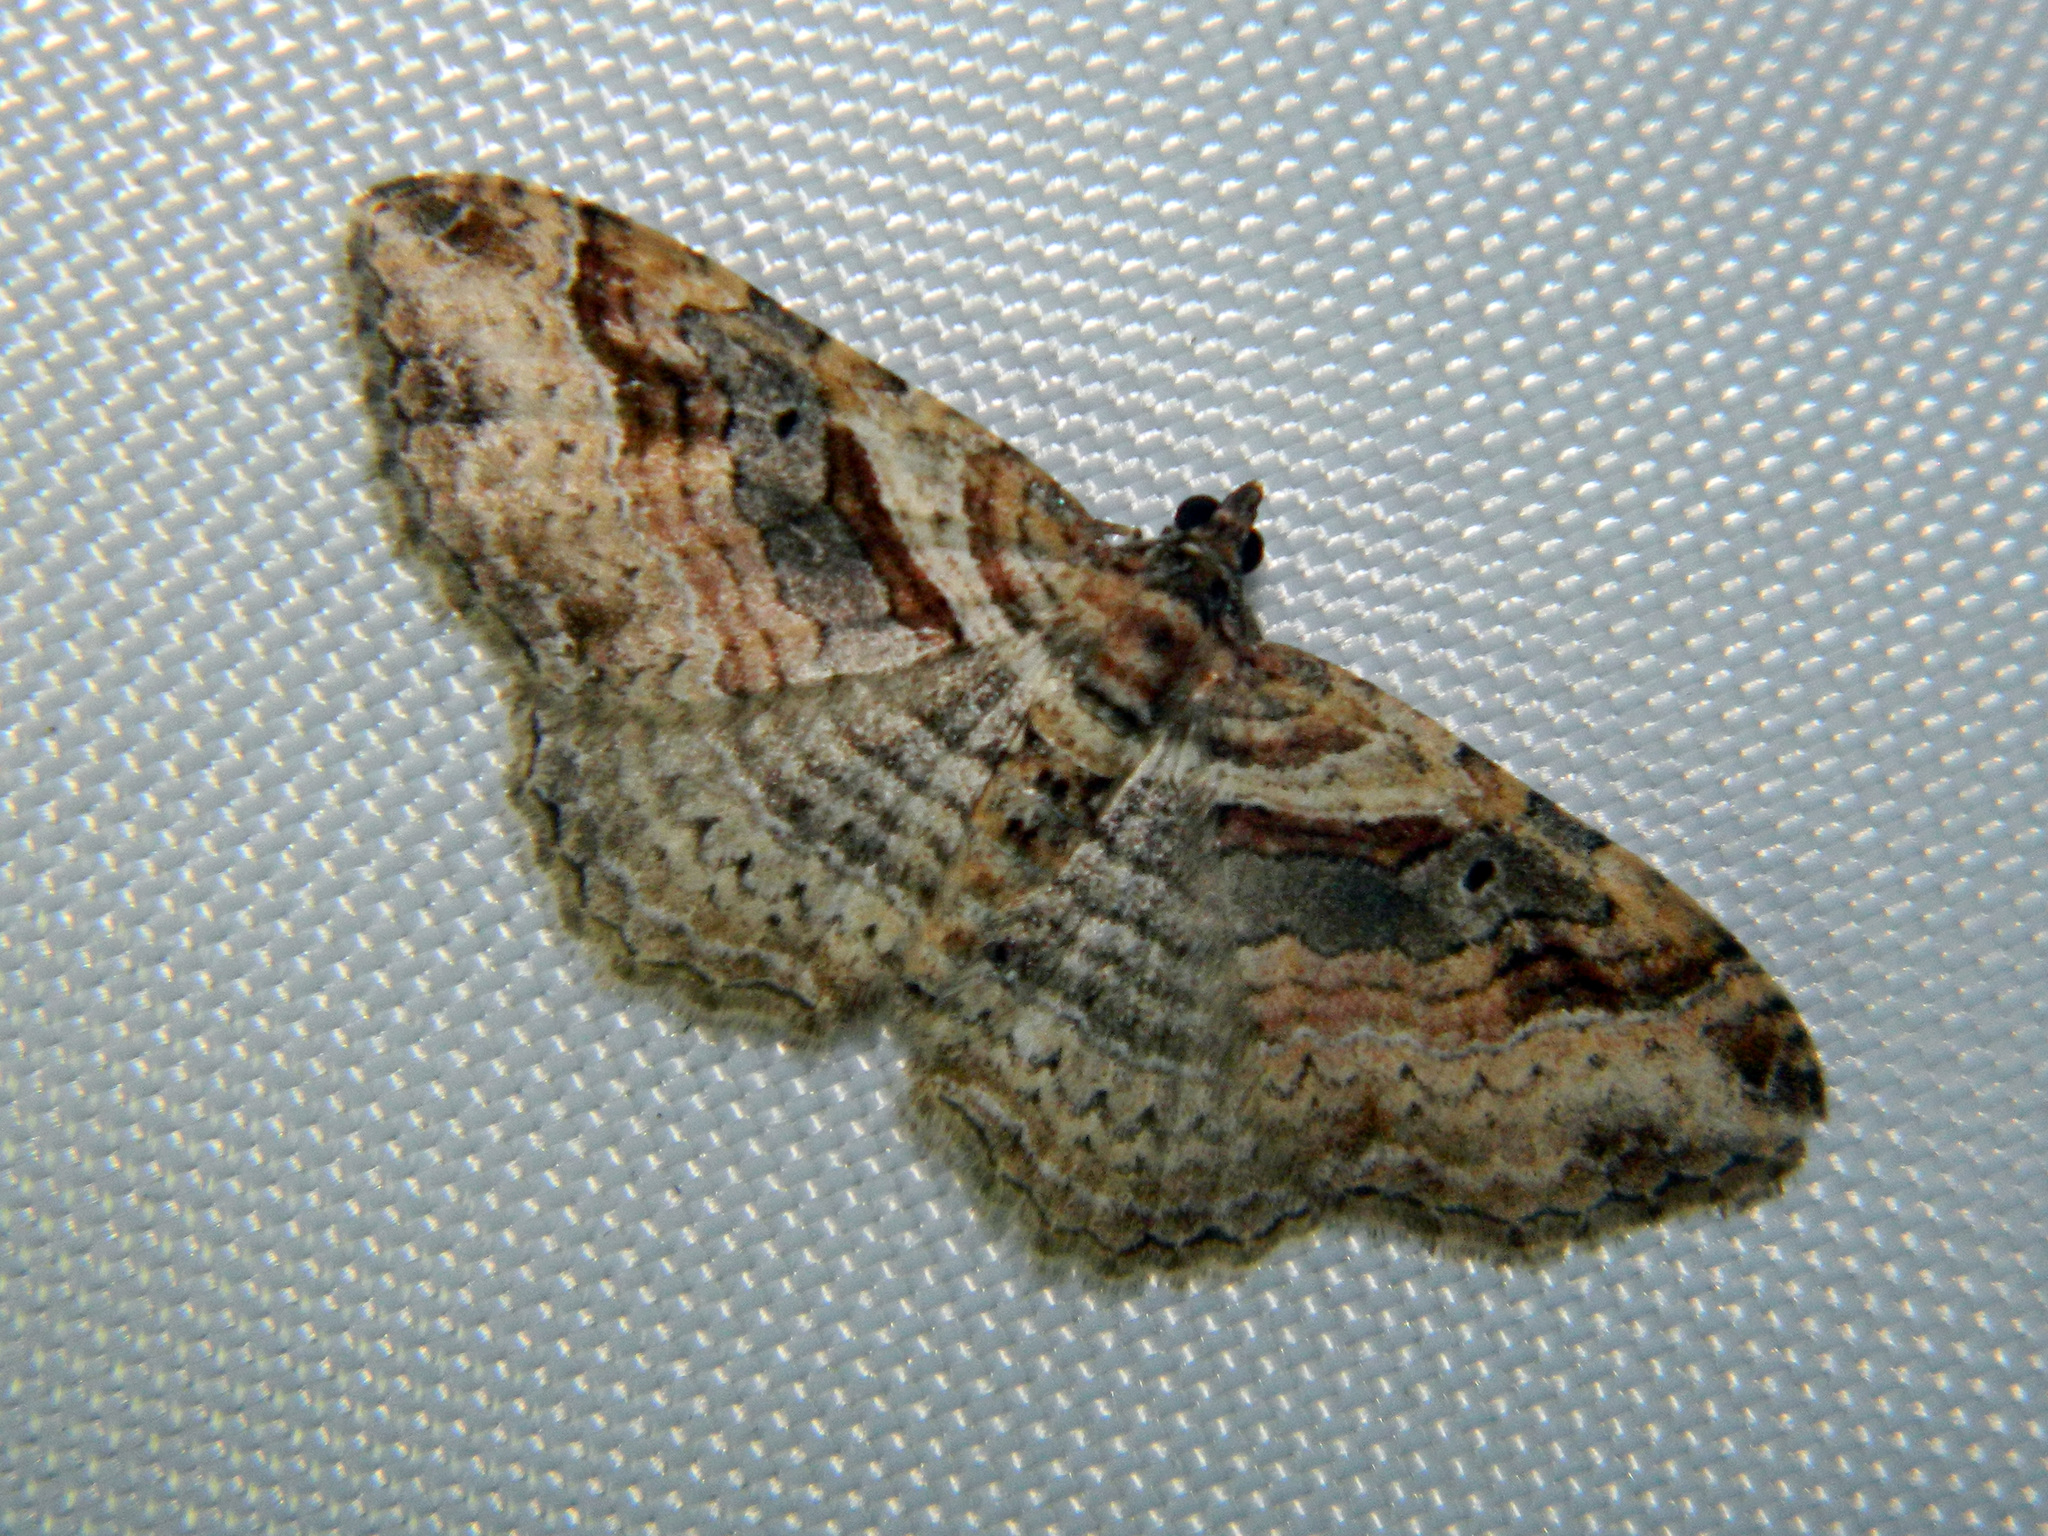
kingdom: Animalia
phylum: Arthropoda
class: Insecta
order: Lepidoptera
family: Geometridae
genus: Costaconvexa
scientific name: Costaconvexa centrostrigaria
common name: Bent-line carpet
